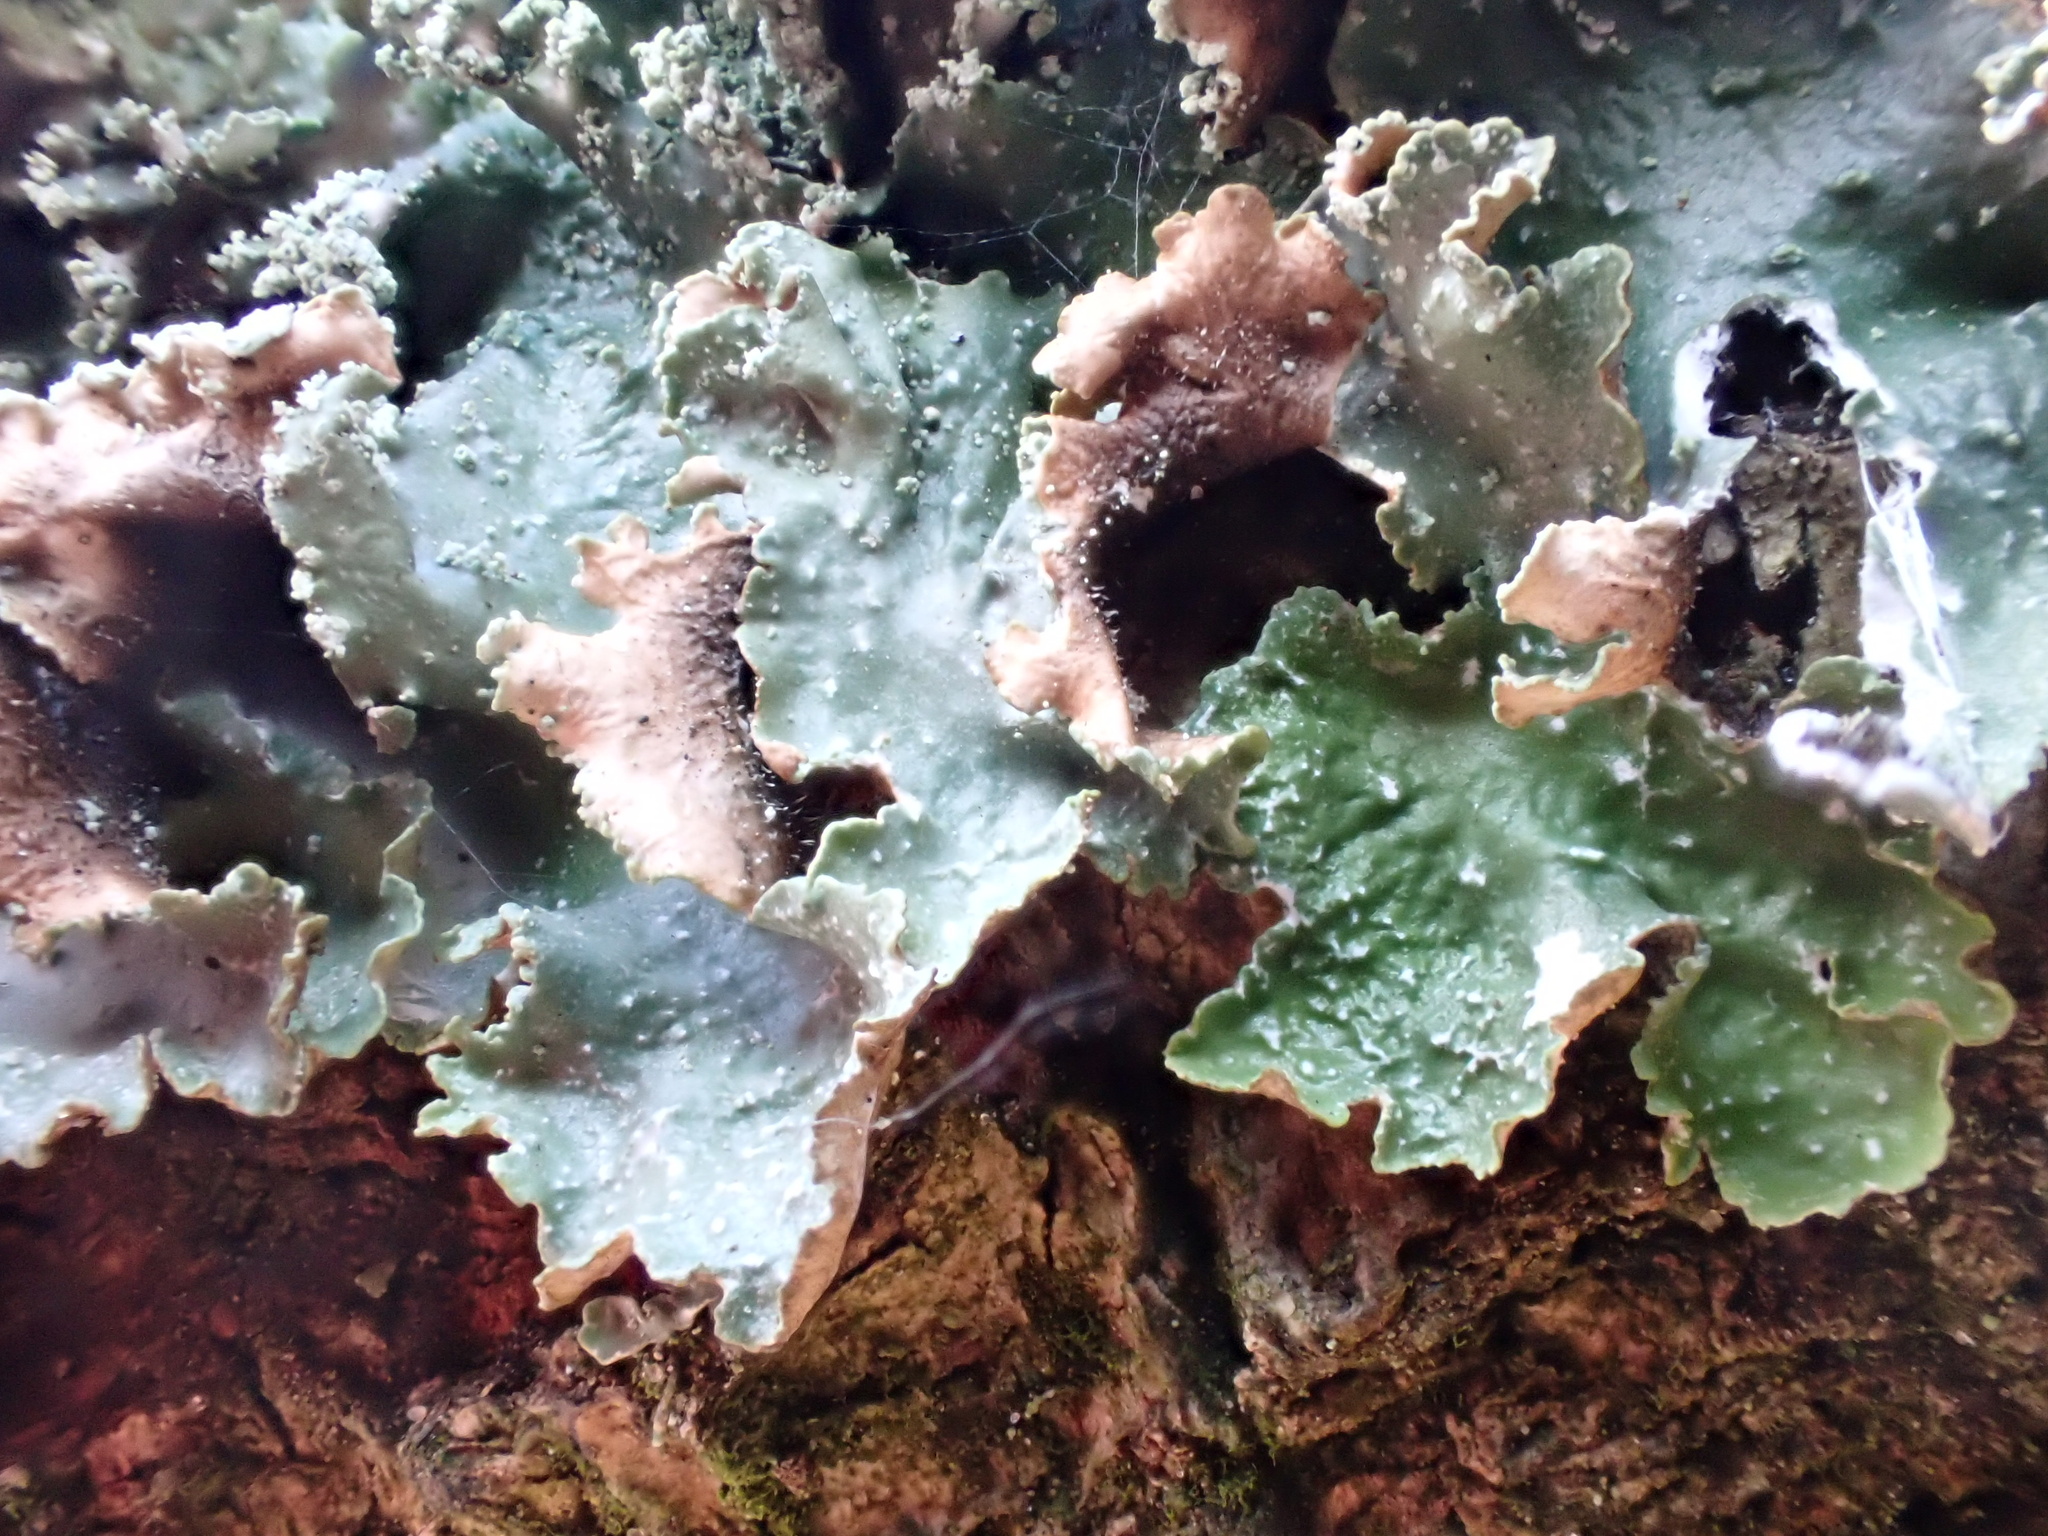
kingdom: Fungi
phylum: Ascomycota
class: Lecanoromycetes
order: Lecanorales
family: Parmeliaceae
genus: Punctelia
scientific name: Punctelia reddenda
